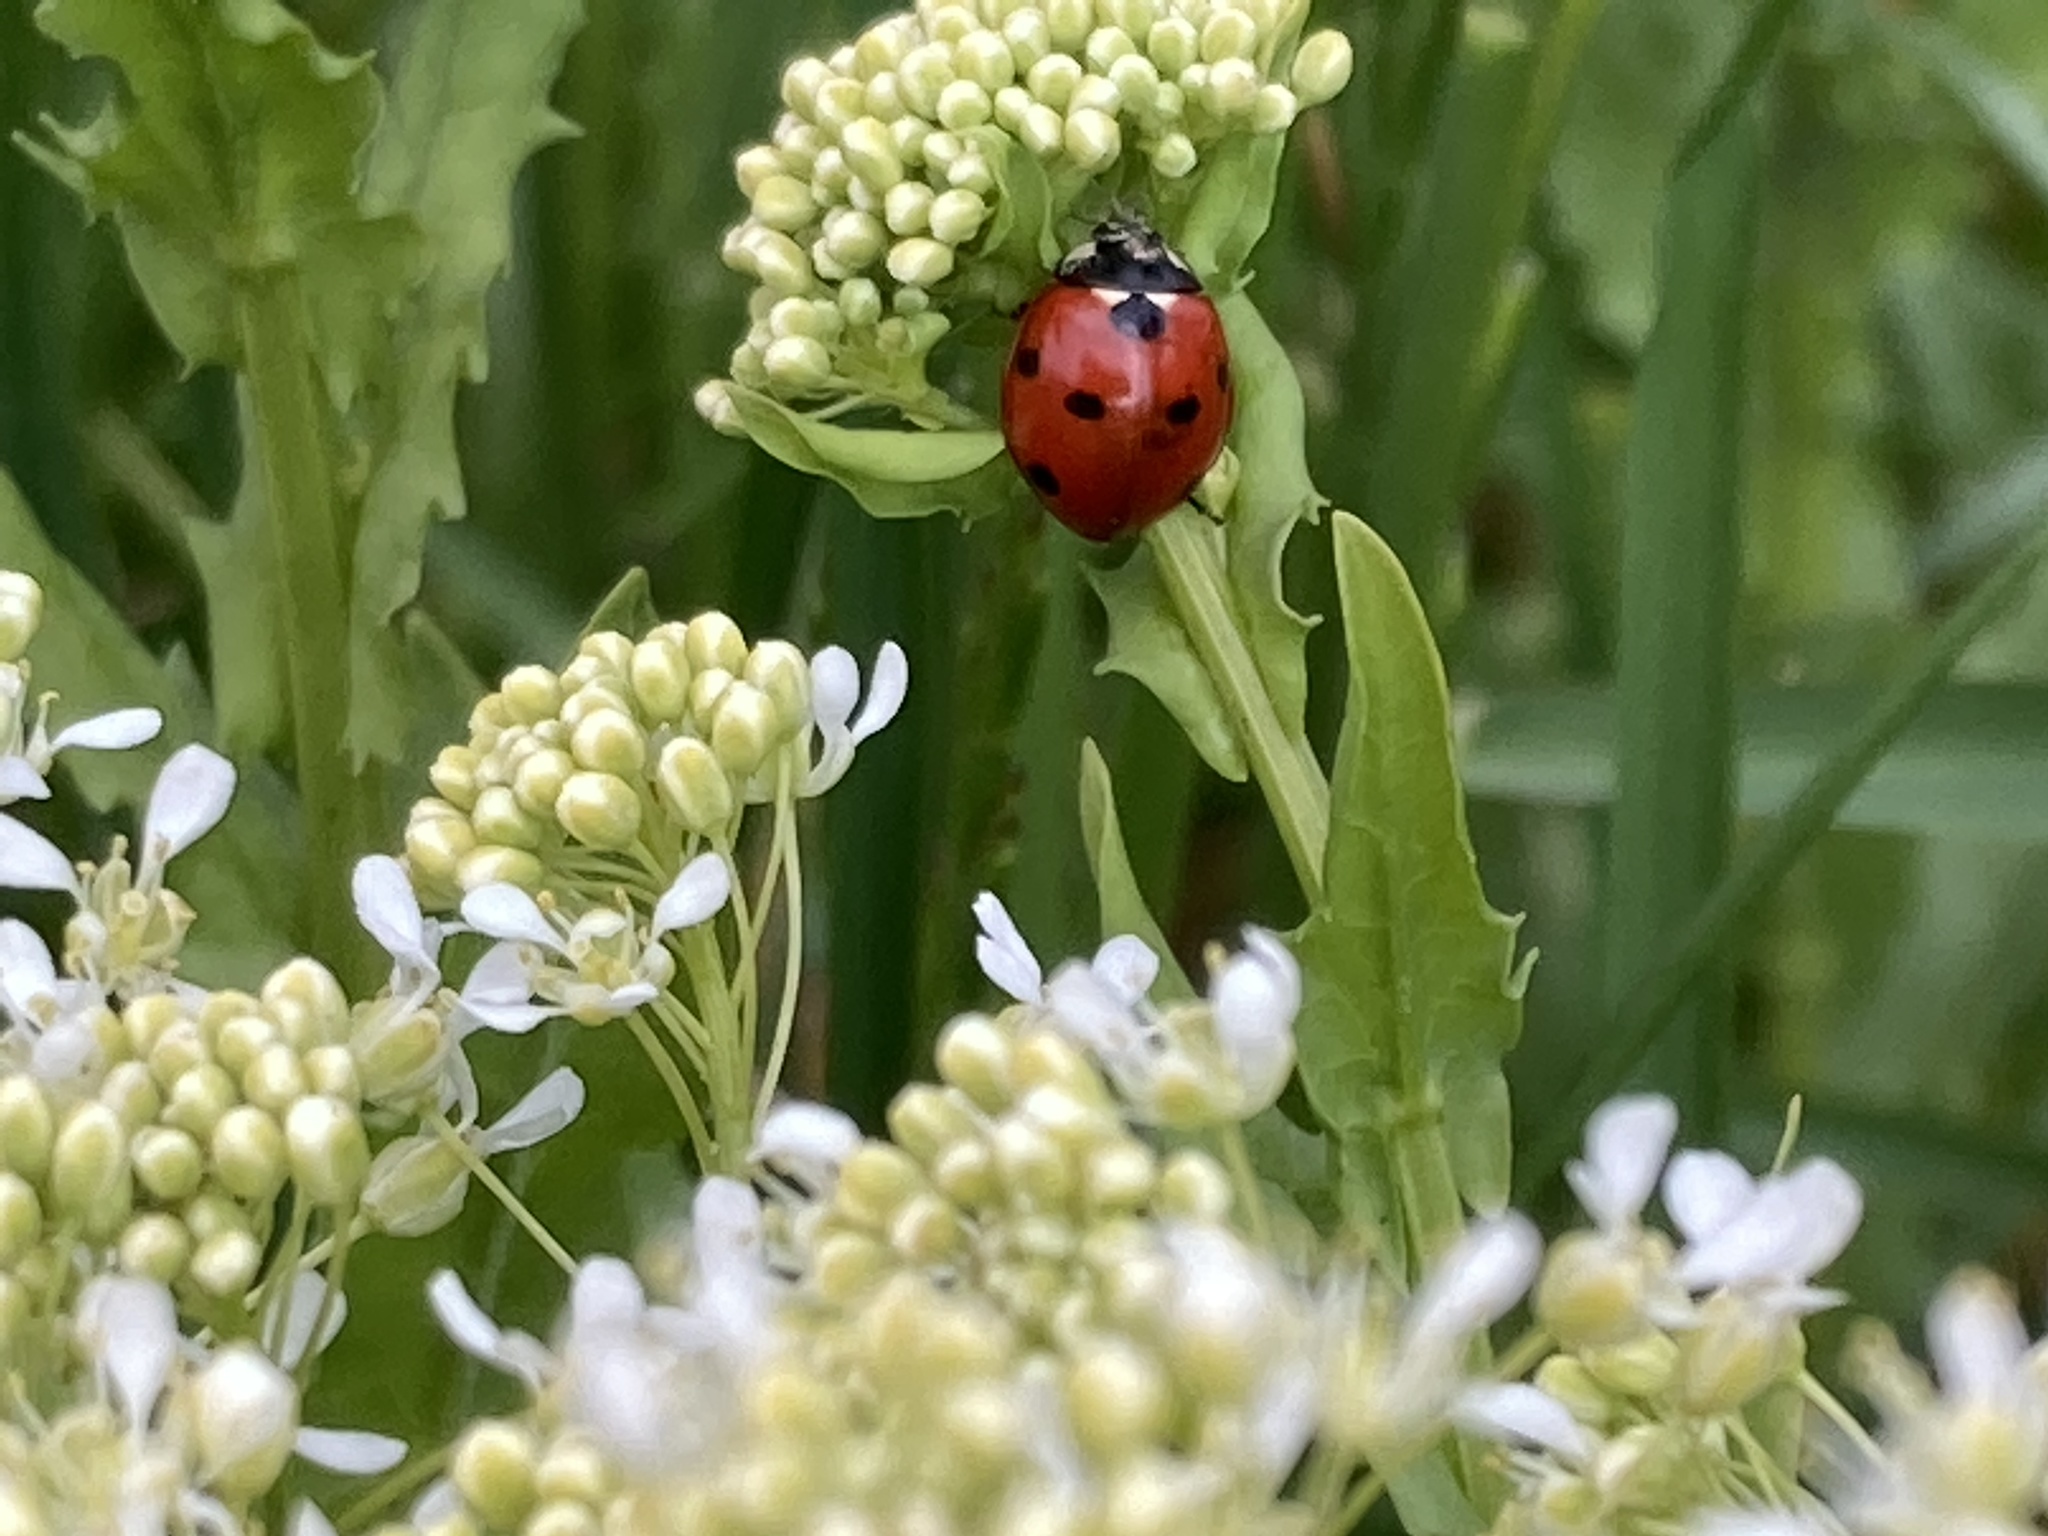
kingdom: Animalia
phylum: Arthropoda
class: Insecta
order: Coleoptera
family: Coccinellidae
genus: Coccinella
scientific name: Coccinella septempunctata
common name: Sevenspotted lady beetle
